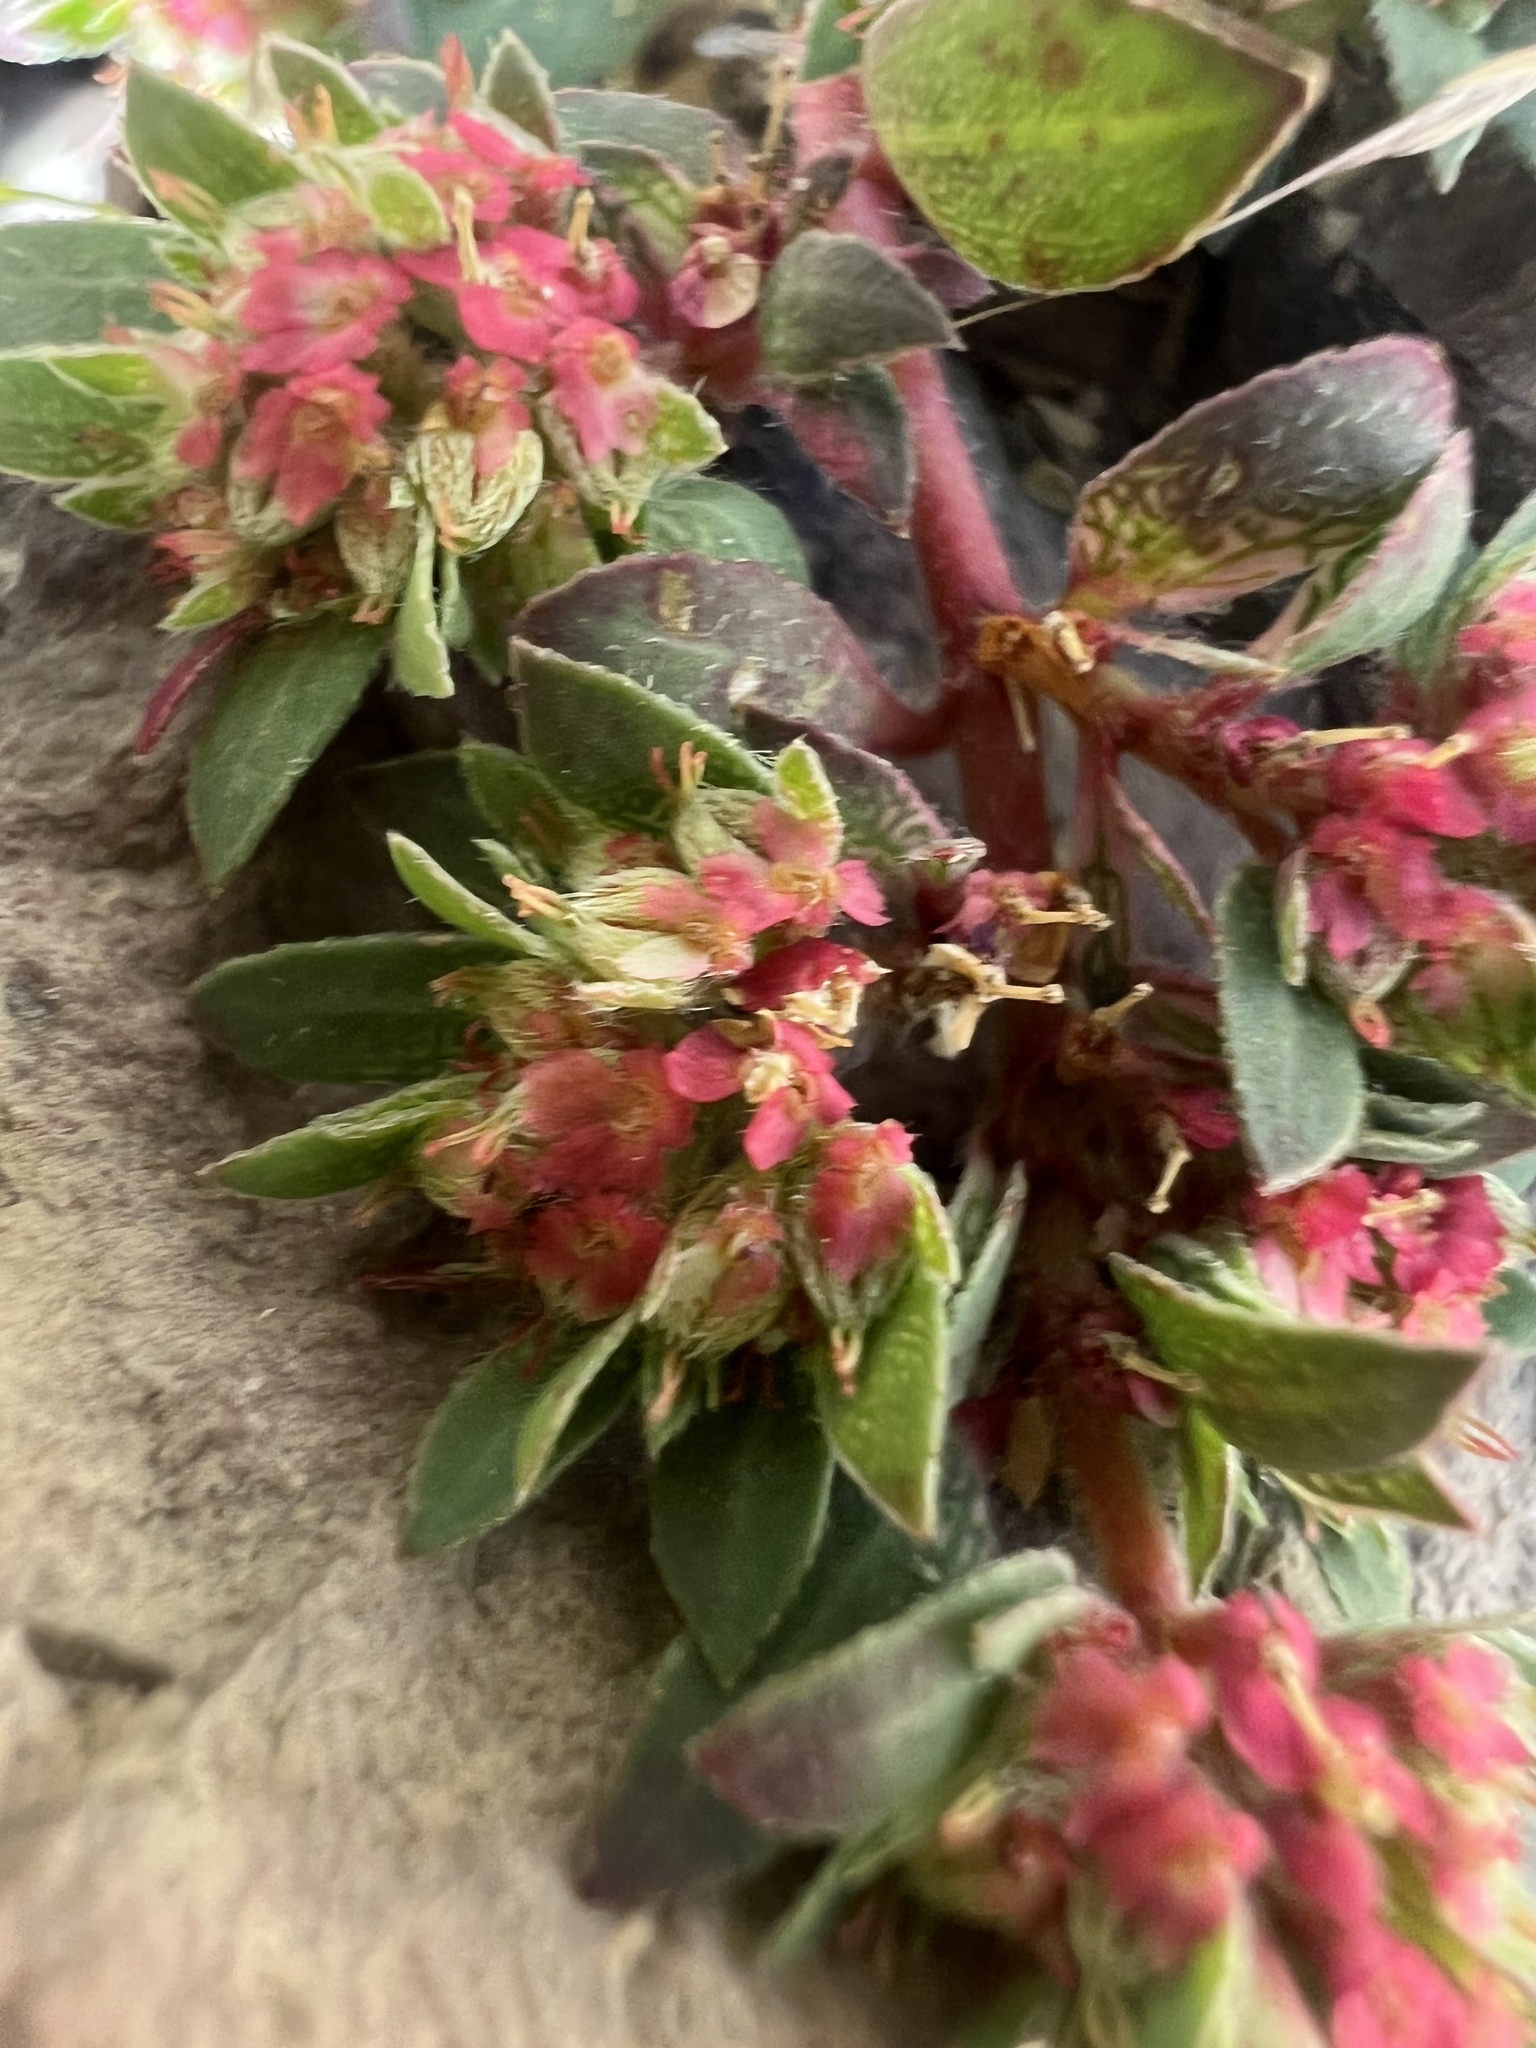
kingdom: Plantae
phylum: Tracheophyta
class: Magnoliopsida
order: Malpighiales
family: Euphorbiaceae
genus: Euphorbia
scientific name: Euphorbia indivisa
